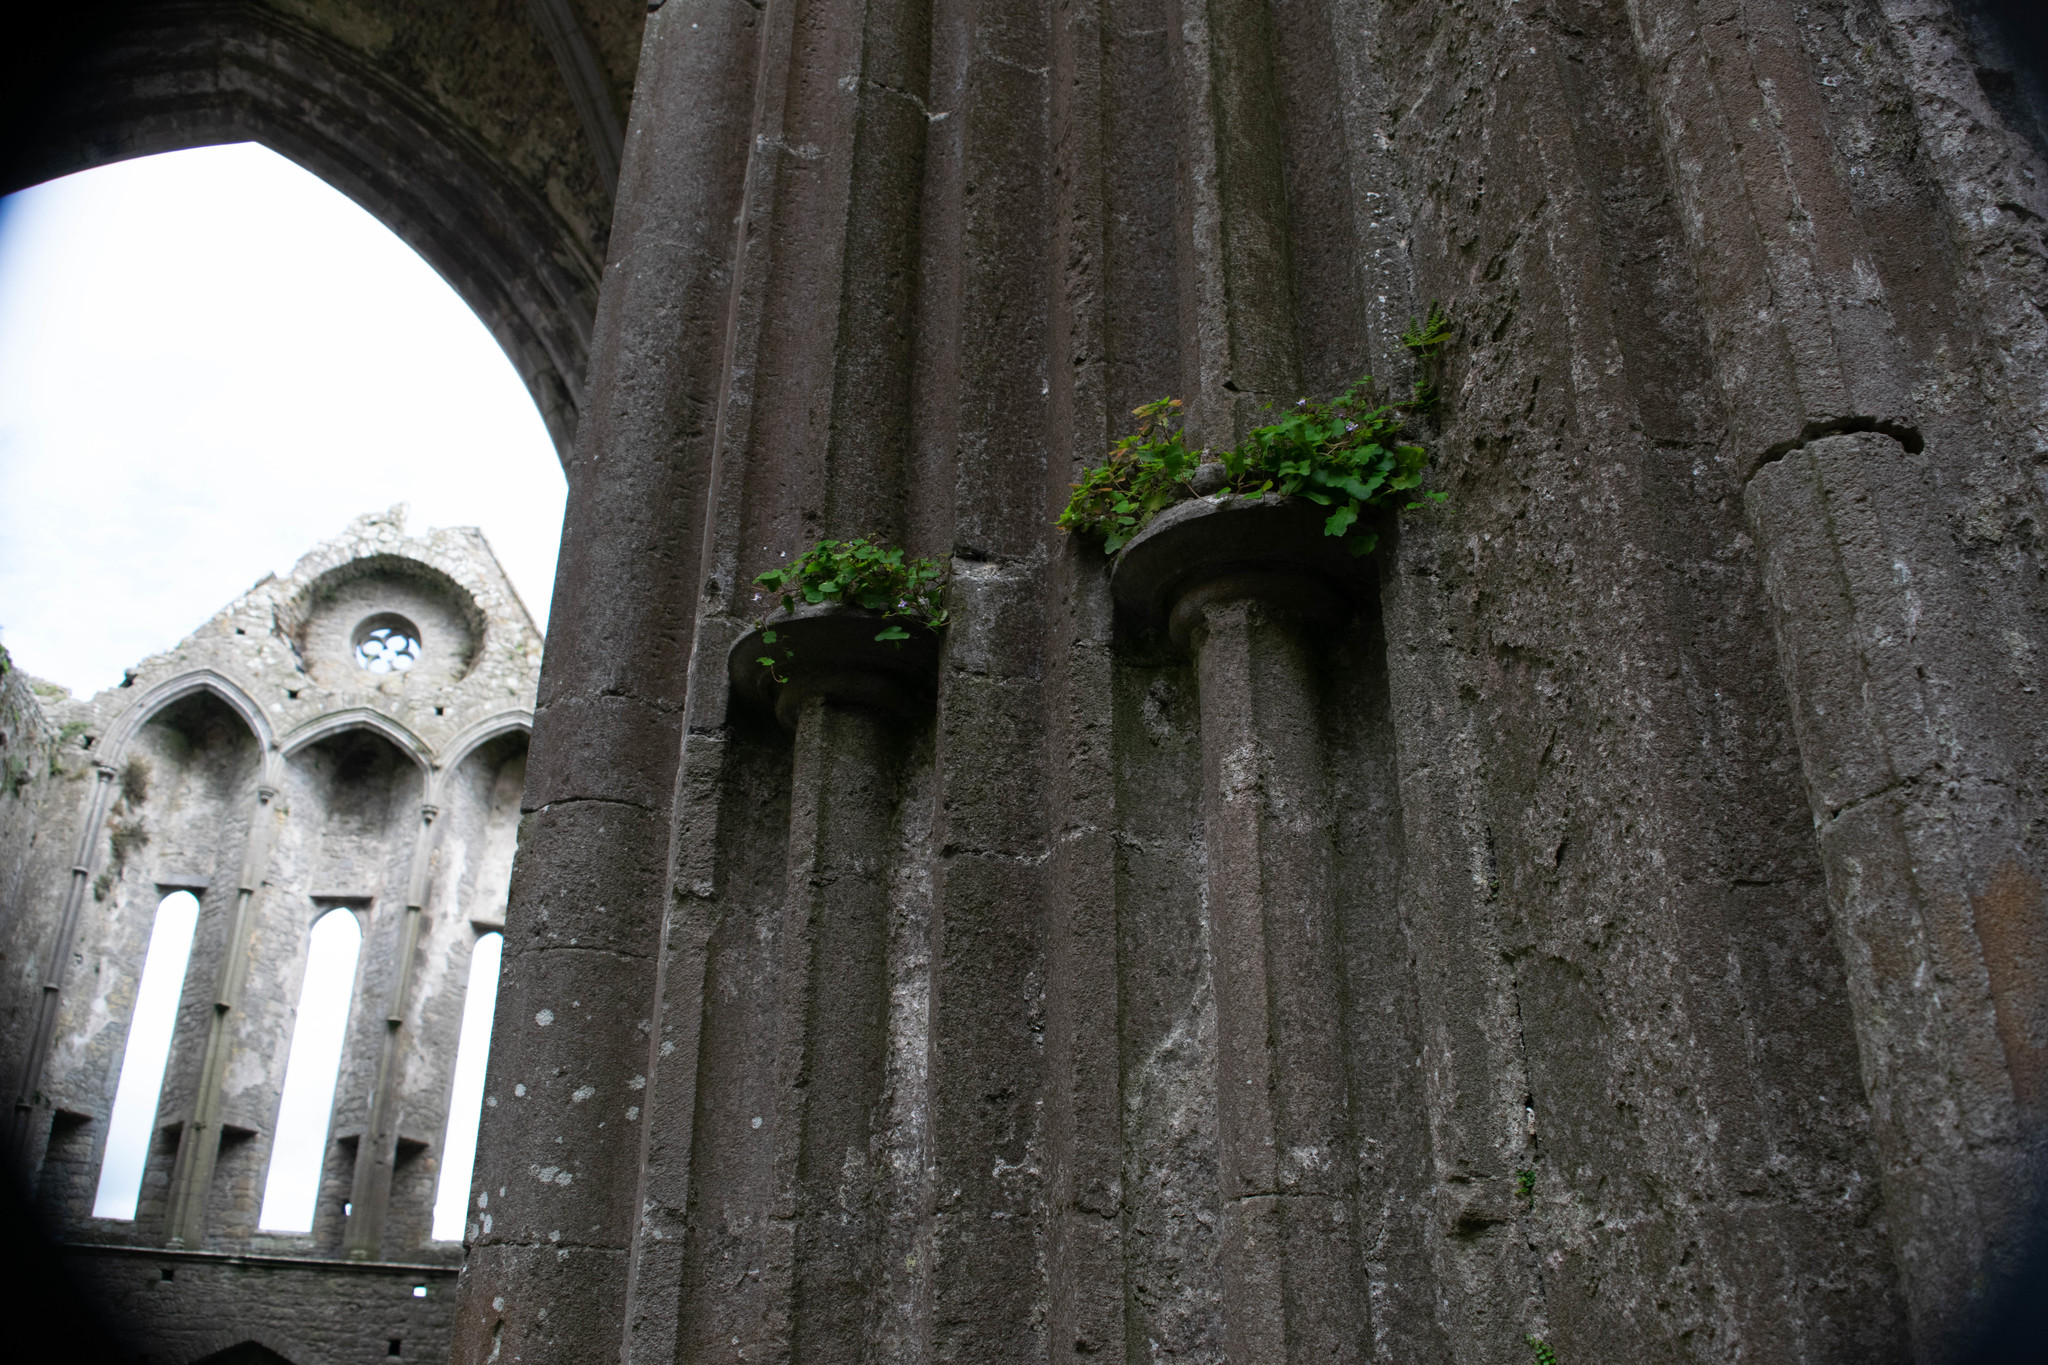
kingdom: Plantae
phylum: Tracheophyta
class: Magnoliopsida
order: Lamiales
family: Plantaginaceae
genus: Cymbalaria
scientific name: Cymbalaria muralis
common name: Ivy-leaved toadflax
